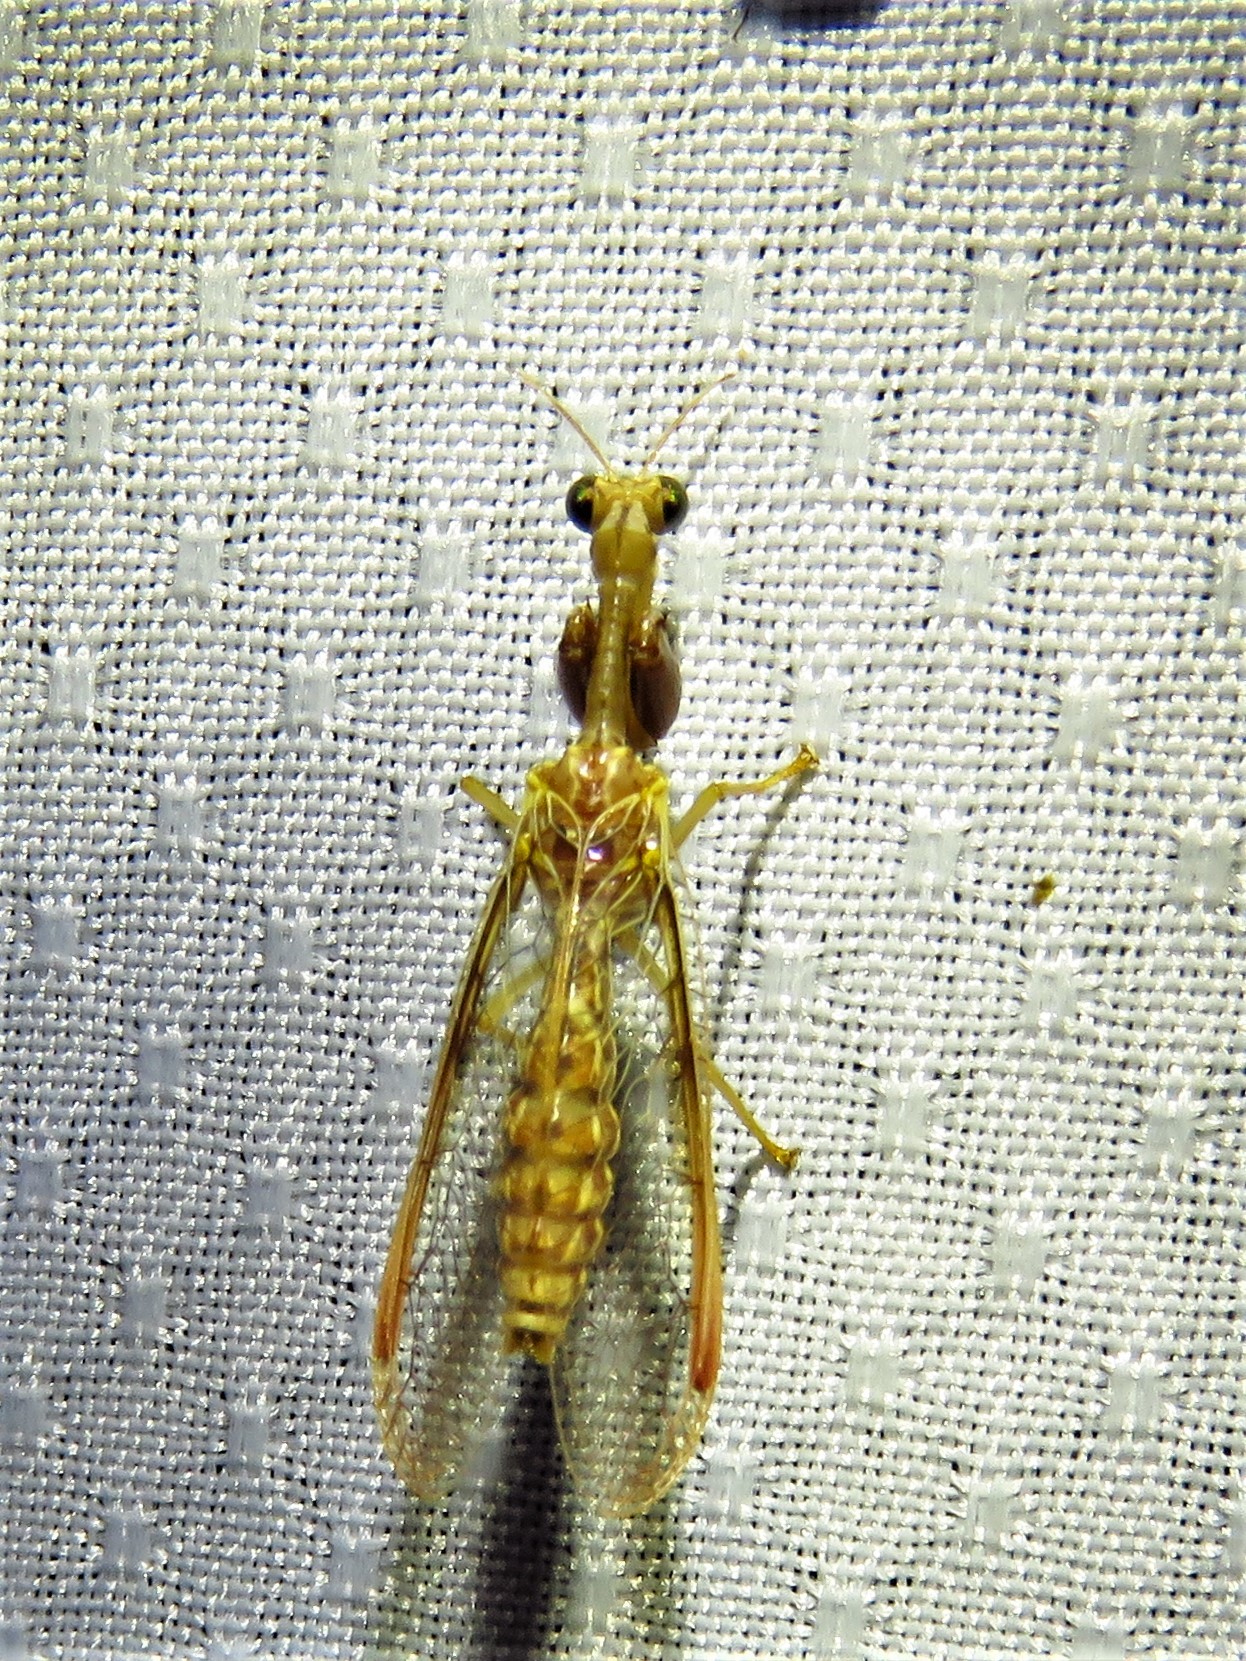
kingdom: Animalia
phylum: Arthropoda
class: Insecta
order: Neuroptera
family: Mantispidae
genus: Dicromantispa
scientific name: Dicromantispa interrupta
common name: Four-spotted mantidfly
